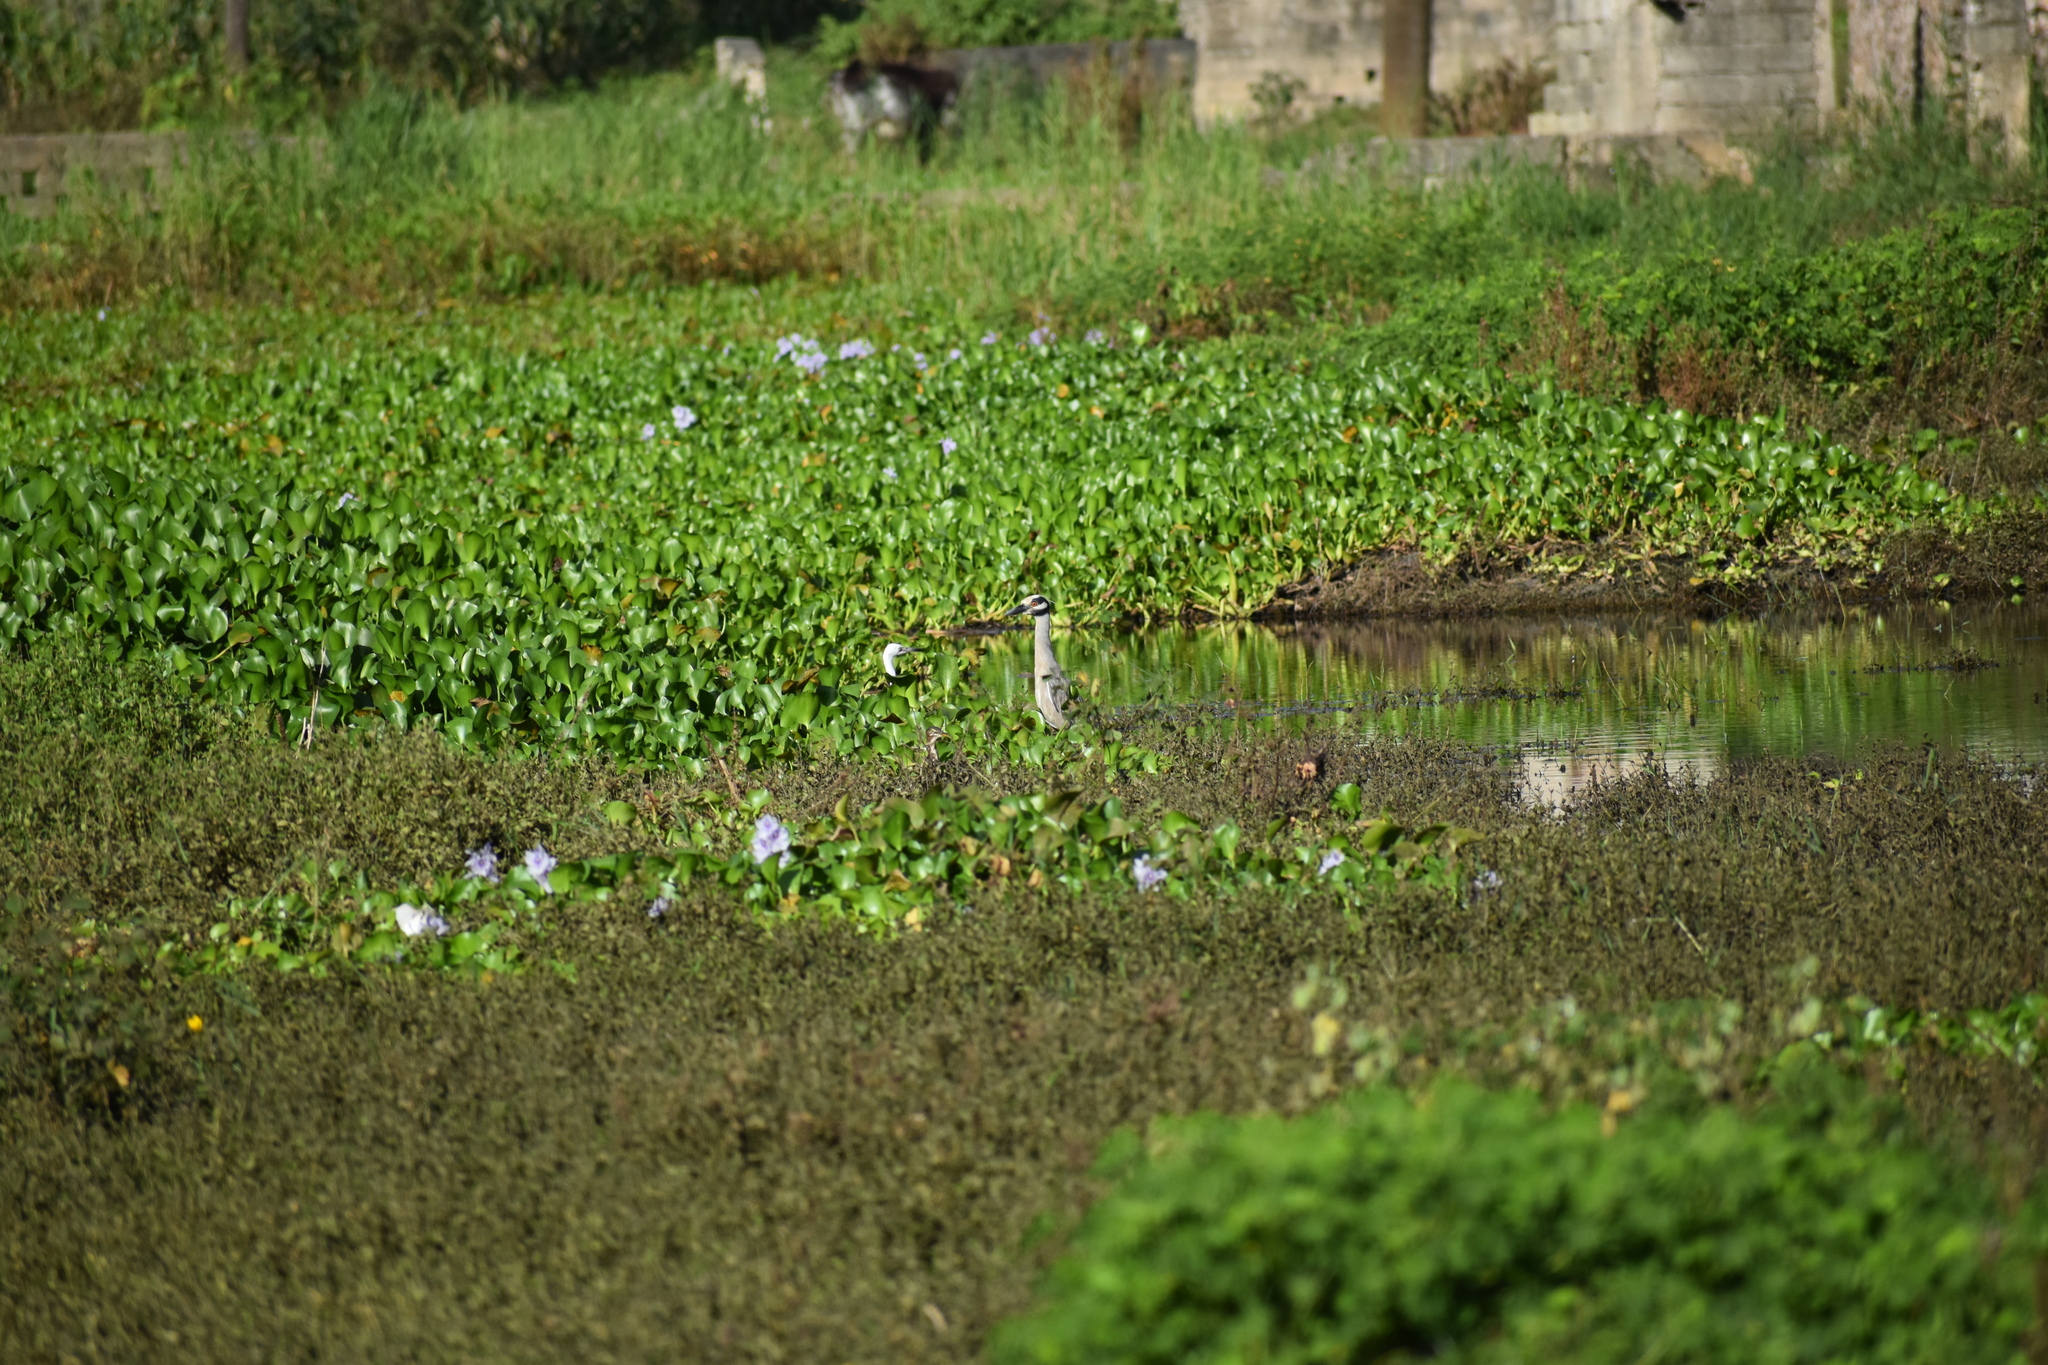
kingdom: Animalia
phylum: Chordata
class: Aves
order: Pelecaniformes
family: Ardeidae
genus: Nyctanassa
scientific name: Nyctanassa violacea
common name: Yellow-crowned night heron
